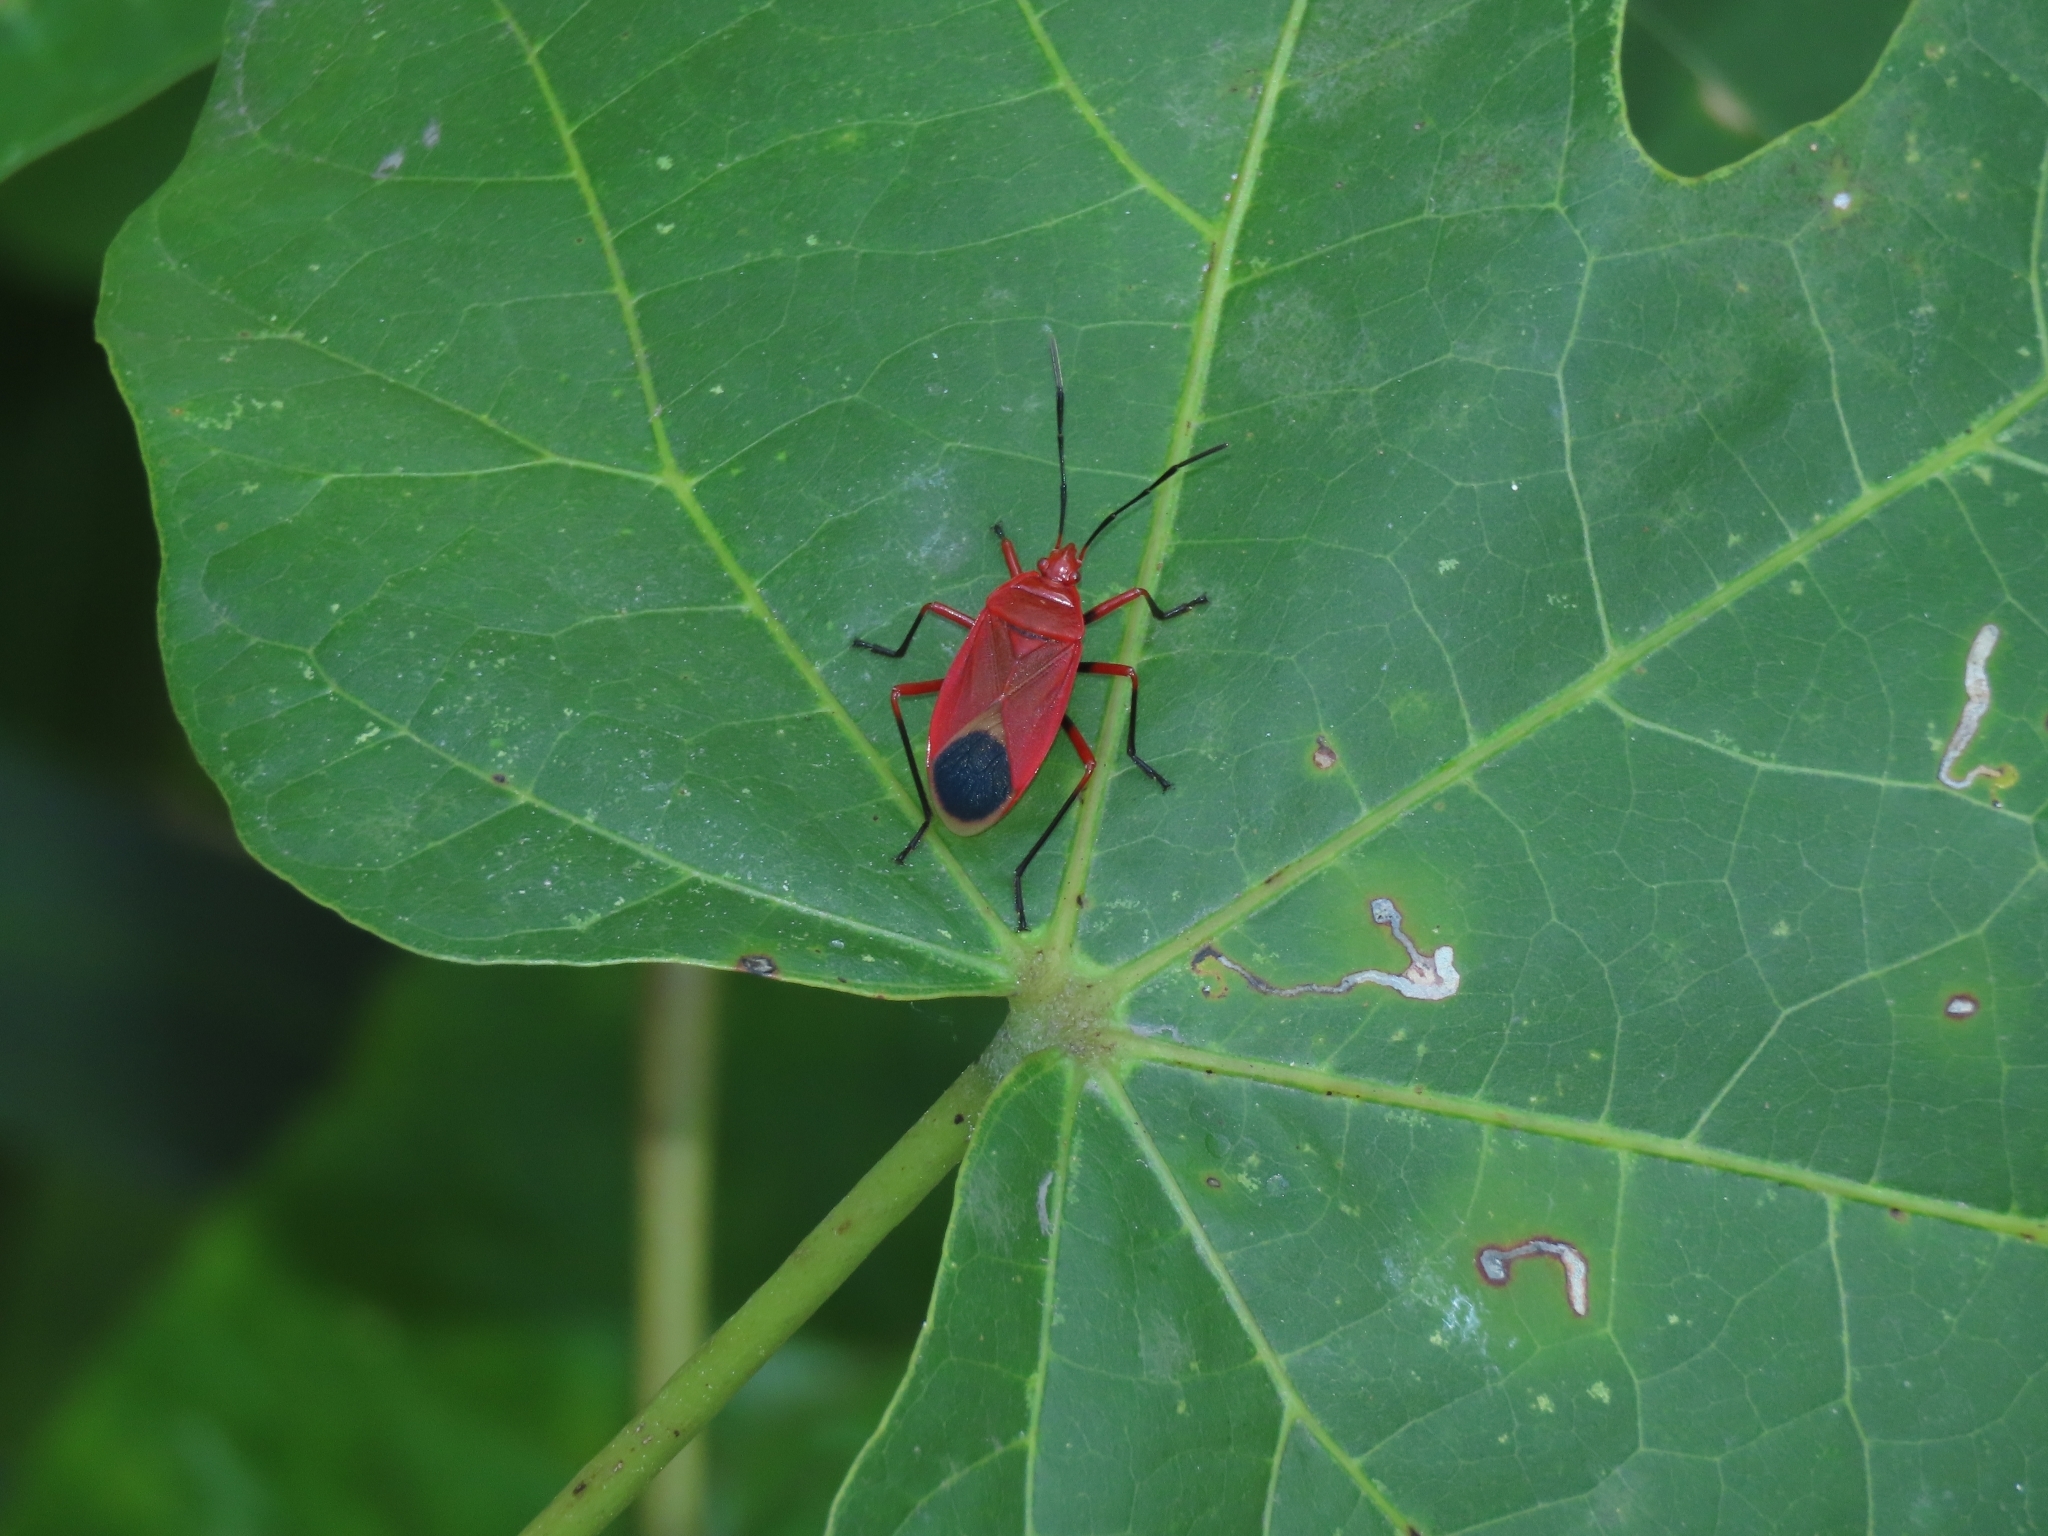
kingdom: Animalia
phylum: Arthropoda
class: Insecta
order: Hemiptera
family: Pyrrhocoridae
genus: Dindymus
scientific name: Dindymus brevis
